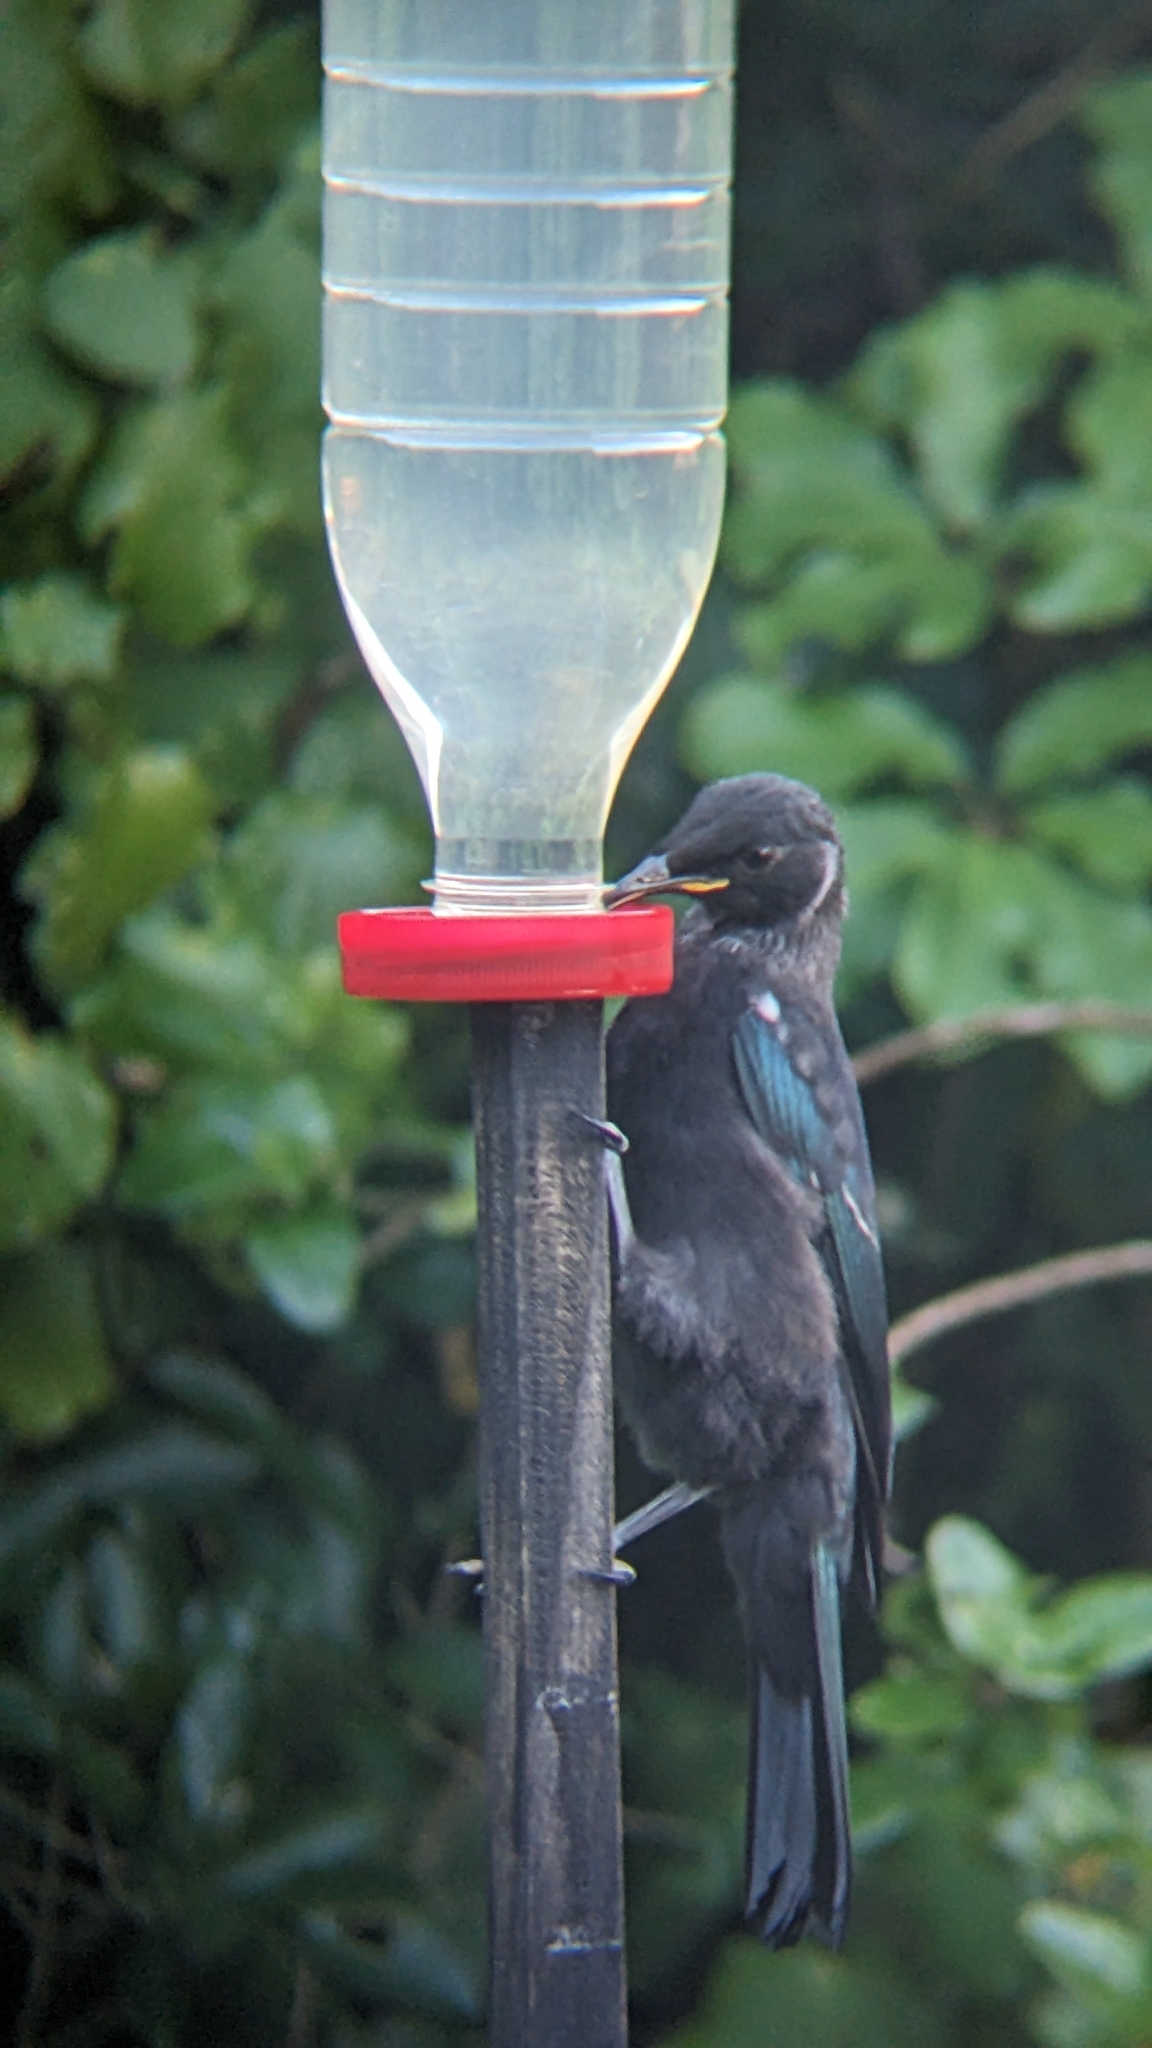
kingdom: Animalia
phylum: Chordata
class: Aves
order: Passeriformes
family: Meliphagidae
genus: Prosthemadera
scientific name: Prosthemadera novaeseelandiae
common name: Tui
